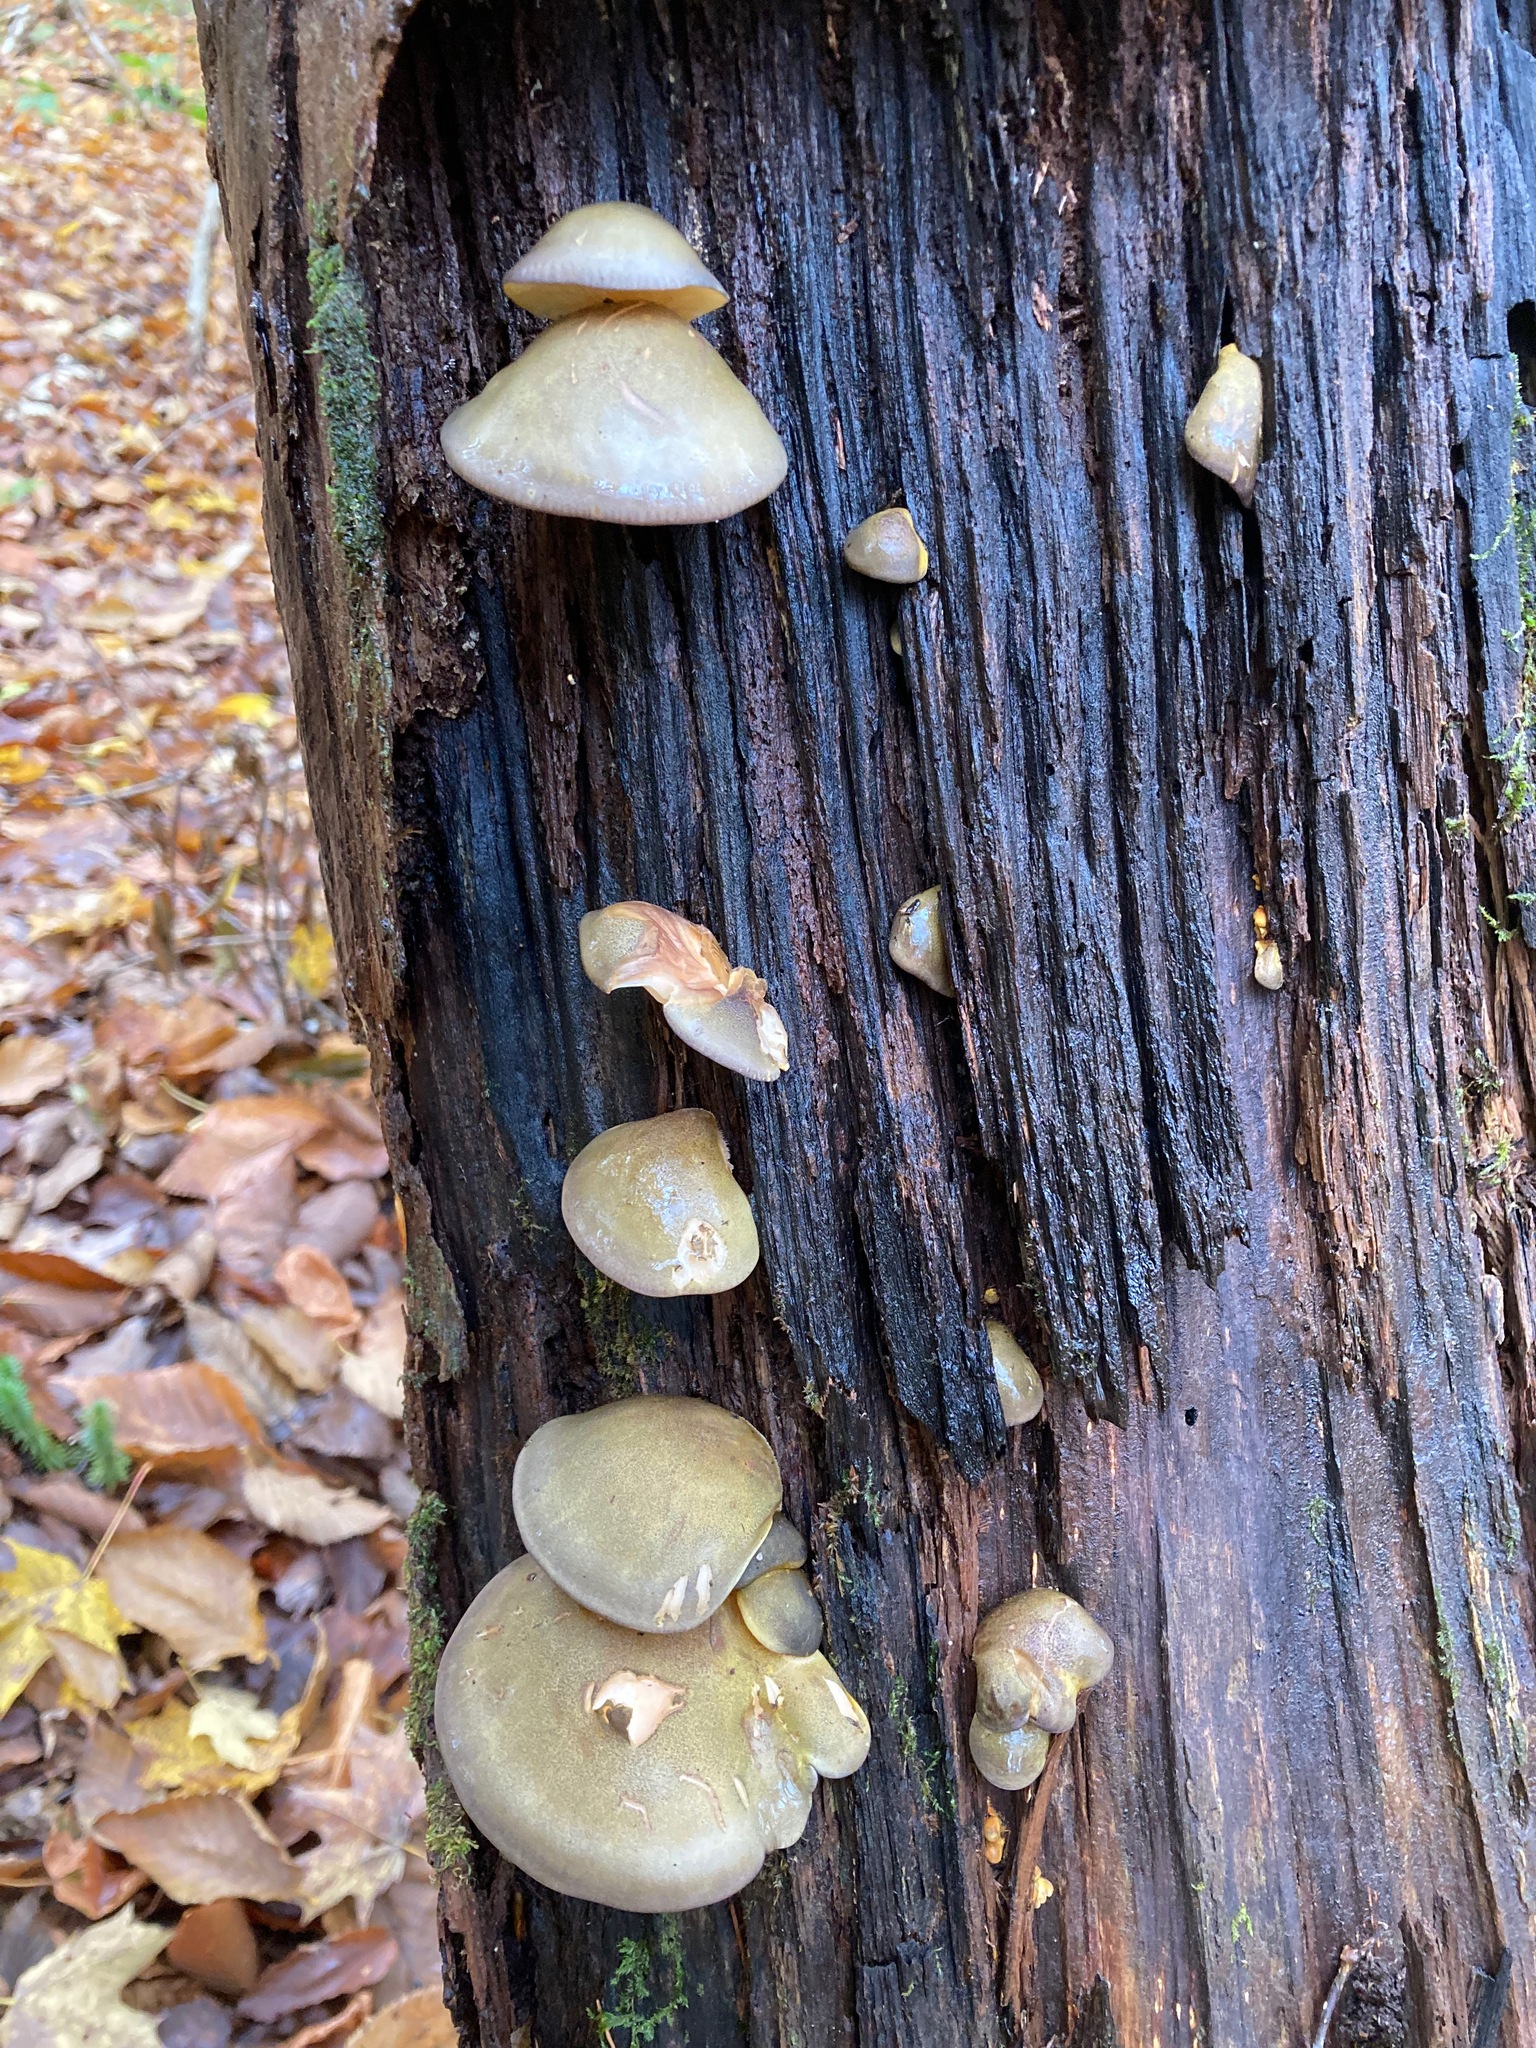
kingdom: Fungi
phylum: Basidiomycota
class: Agaricomycetes
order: Agaricales
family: Sarcomyxaceae
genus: Sarcomyxa
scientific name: Sarcomyxa serotina
